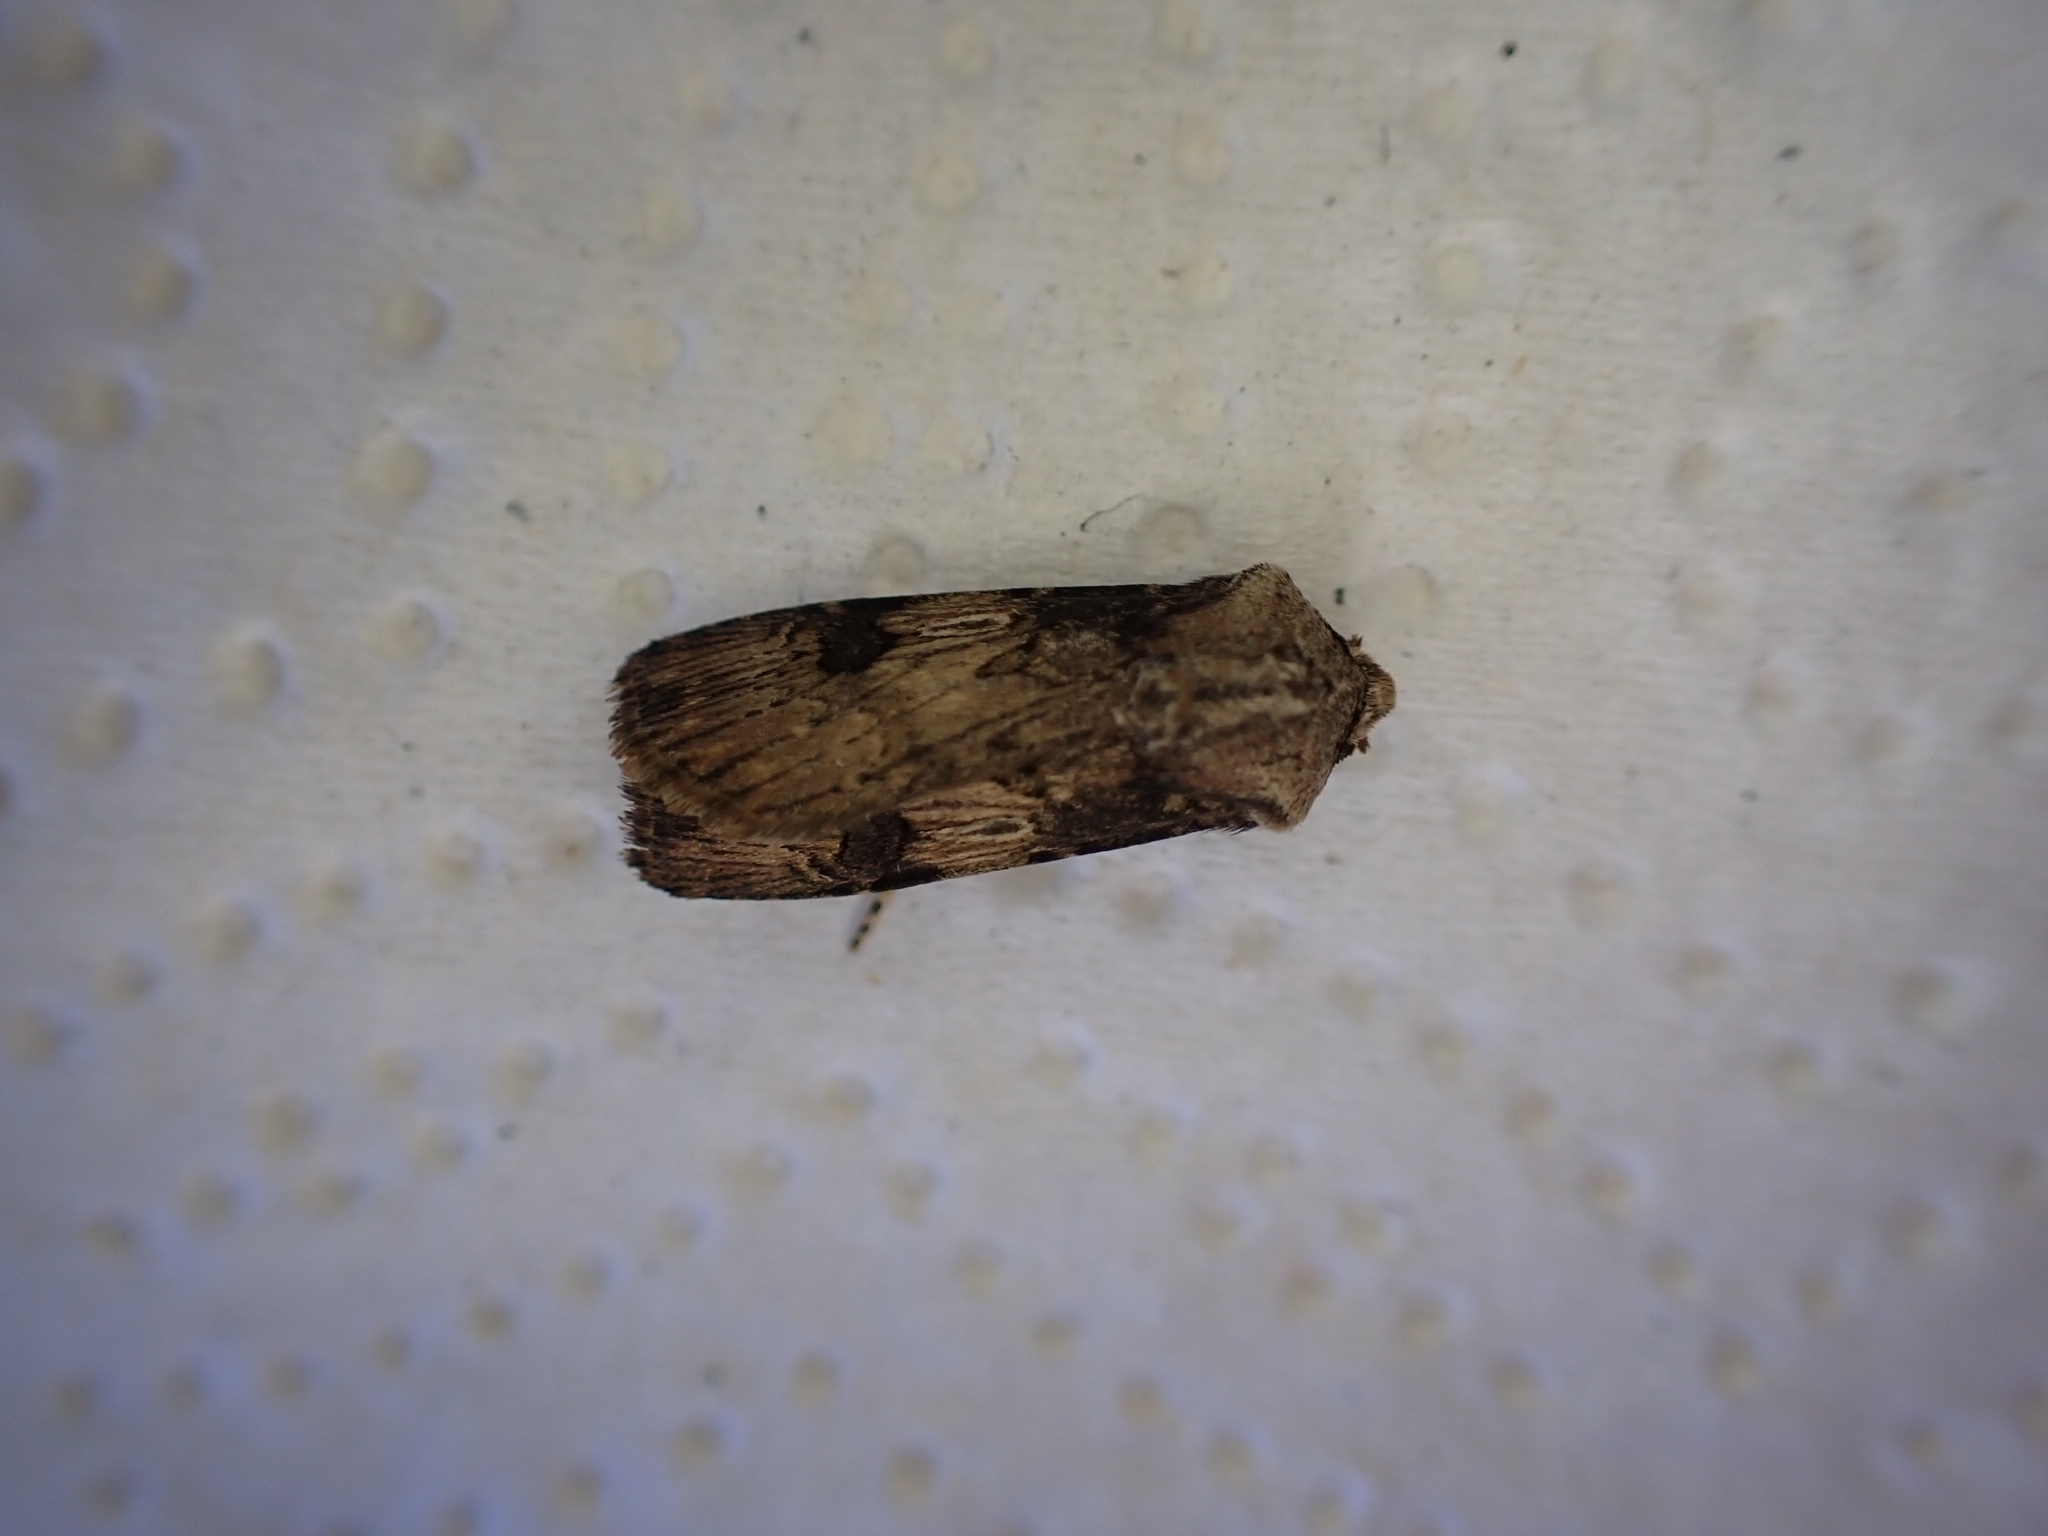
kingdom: Animalia
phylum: Arthropoda
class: Insecta
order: Lepidoptera
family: Noctuidae
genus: Agrotis
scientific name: Agrotis puta
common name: Shuttle-shaped dart
